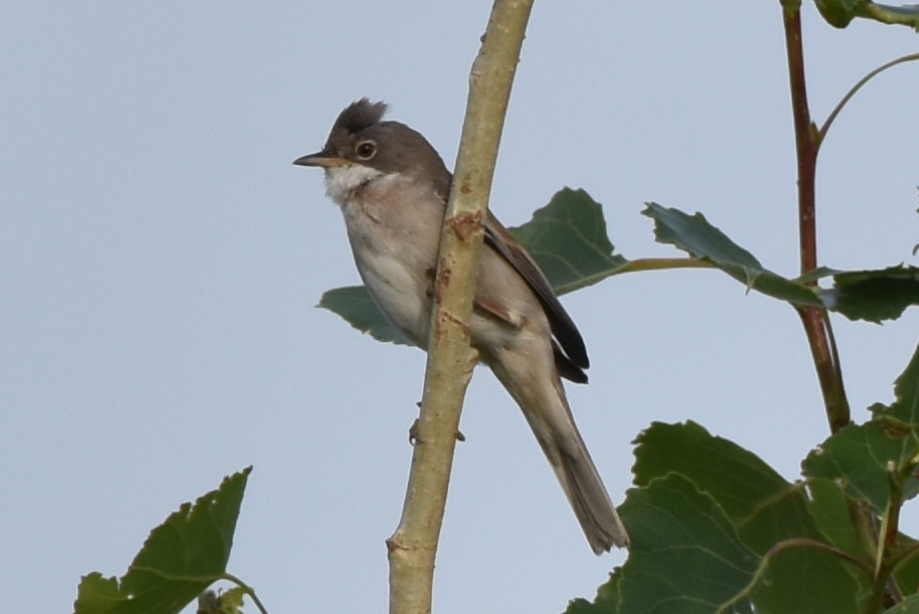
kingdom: Animalia
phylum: Chordata
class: Aves
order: Passeriformes
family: Sylviidae
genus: Sylvia
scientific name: Sylvia communis
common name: Common whitethroat
